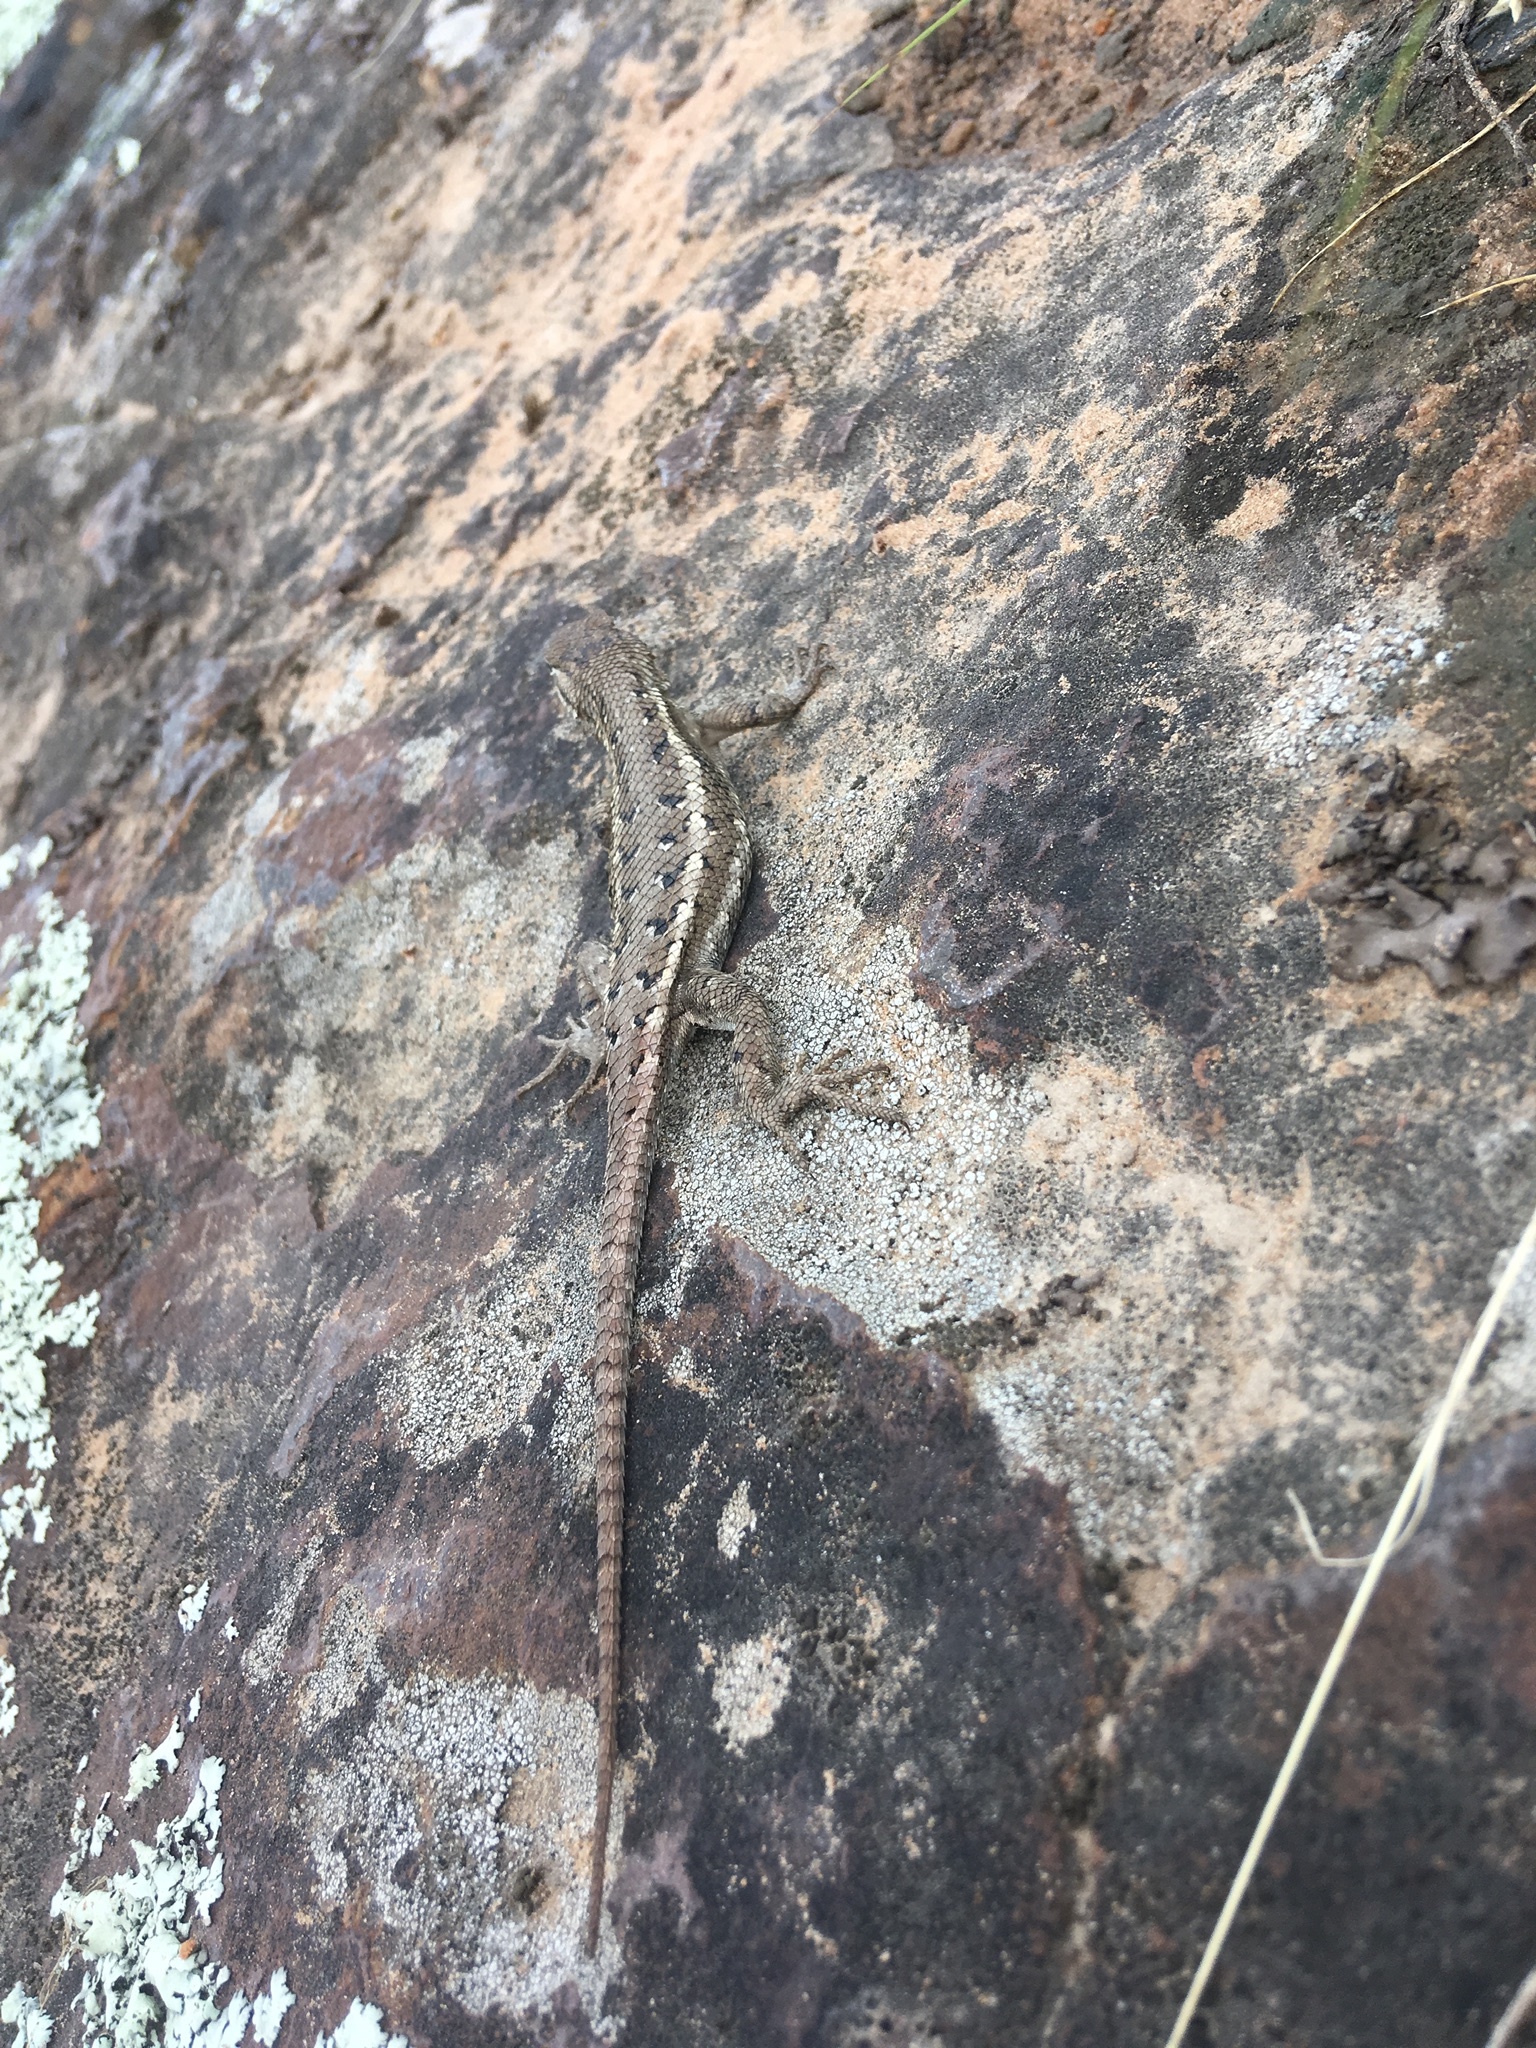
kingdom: Animalia
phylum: Chordata
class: Squamata
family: Phrynosomatidae
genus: Sceloporus
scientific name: Sceloporus consobrinus
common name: Southern prairie lizard
